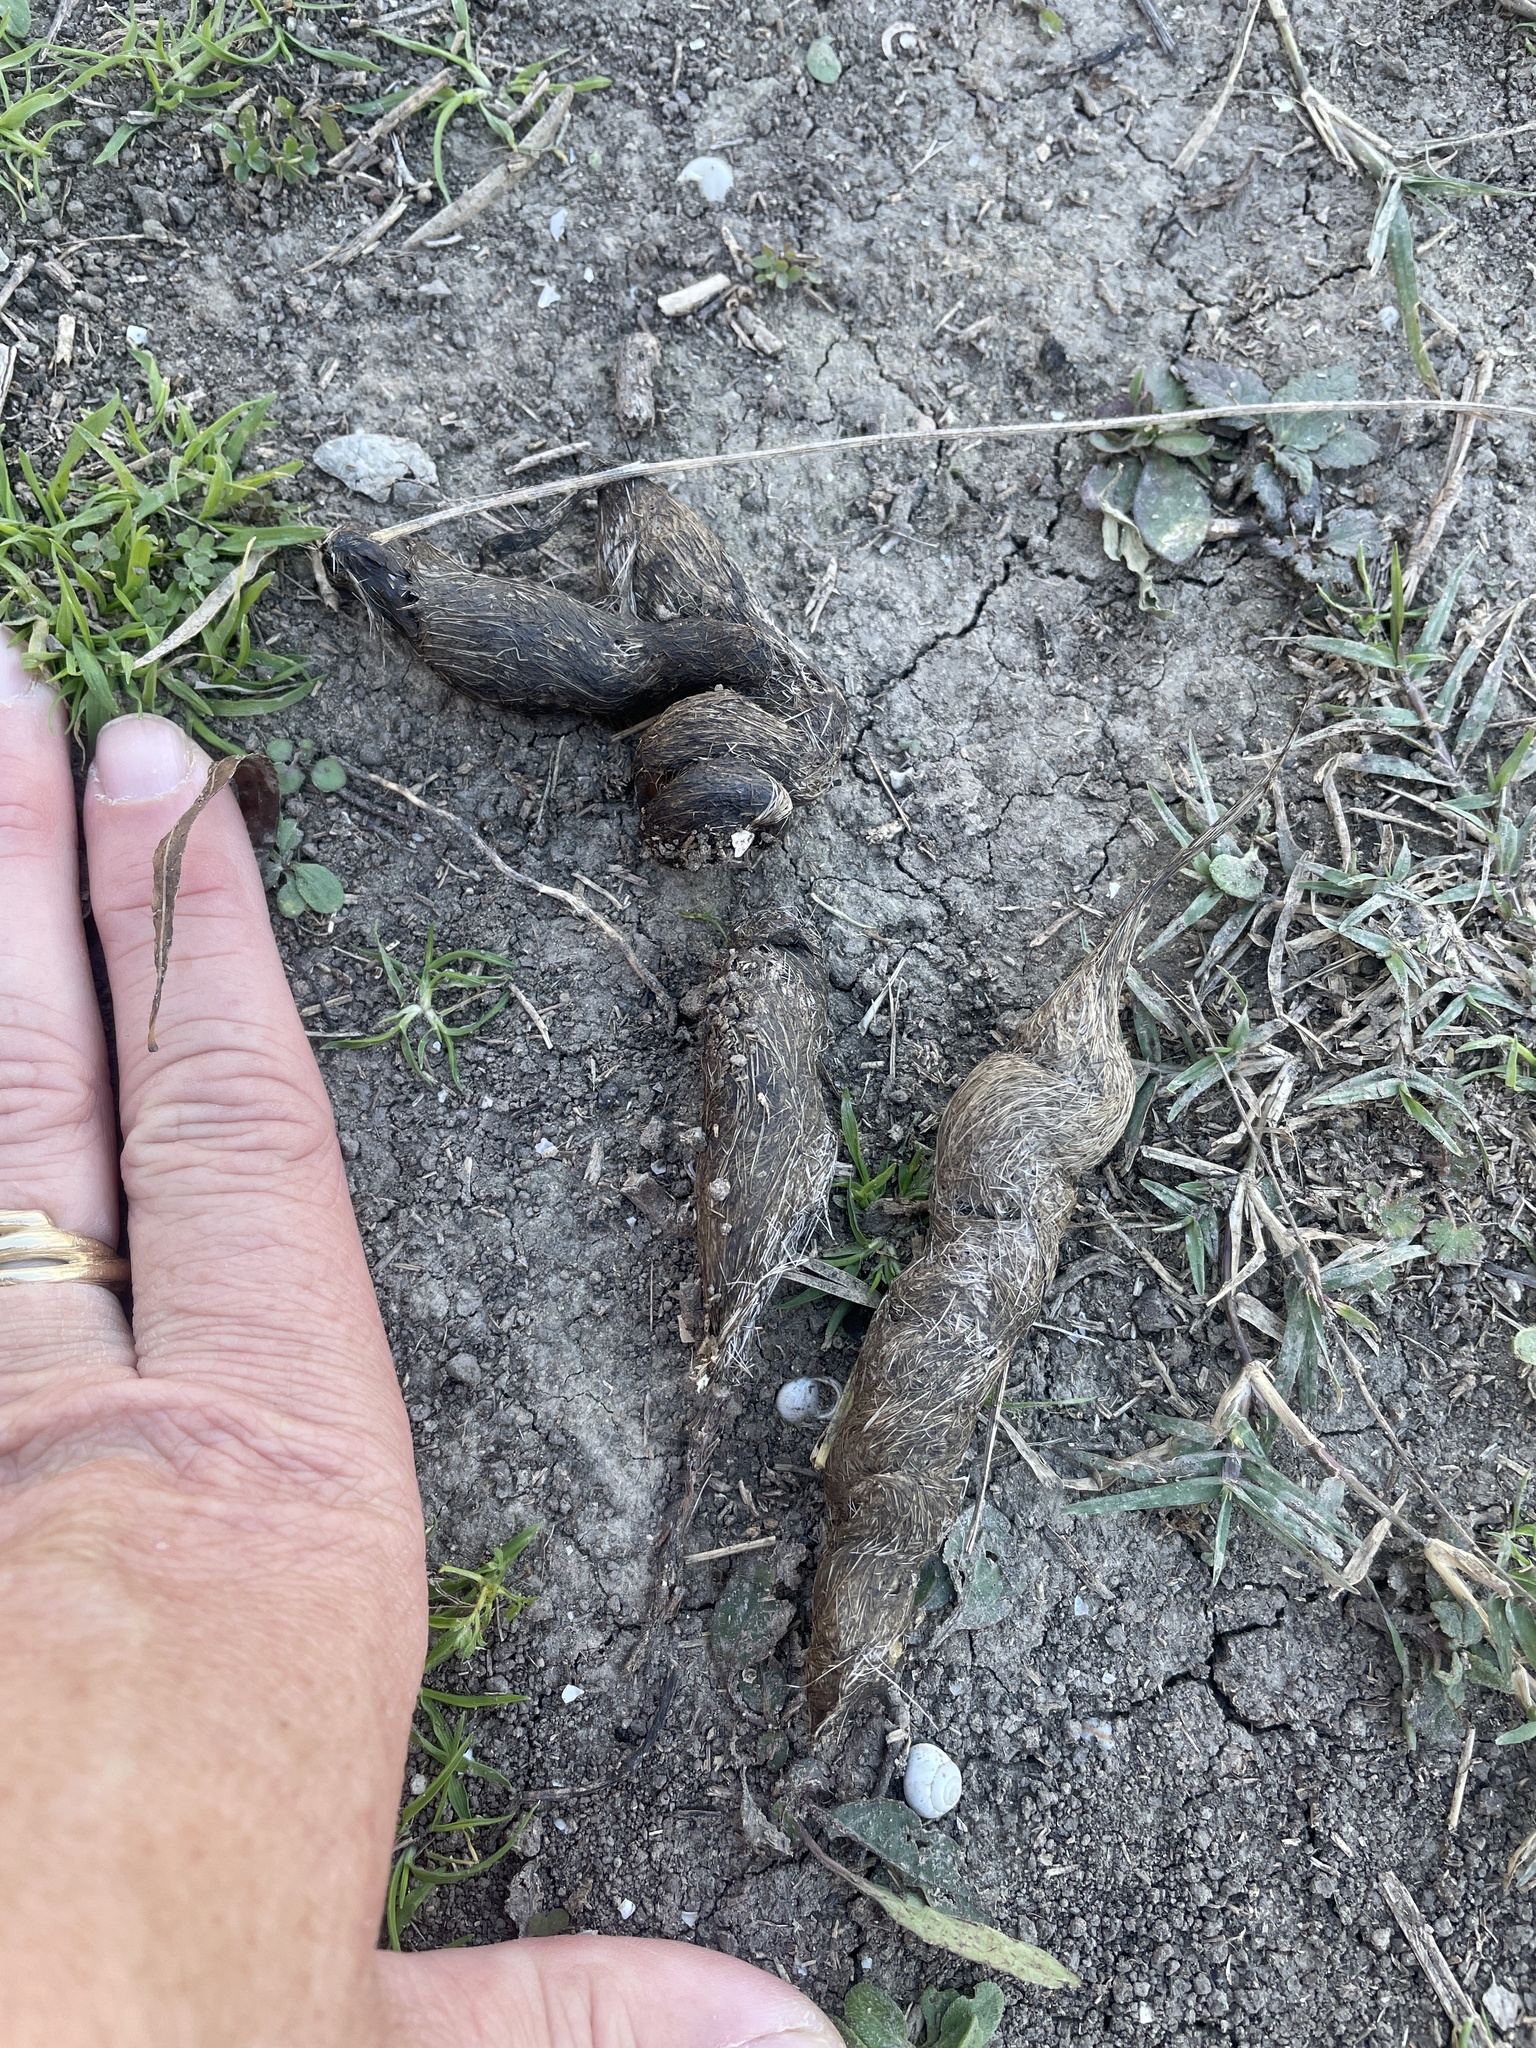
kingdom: Animalia
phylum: Chordata
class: Mammalia
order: Carnivora
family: Canidae
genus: Canis
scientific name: Canis latrans
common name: Coyote
